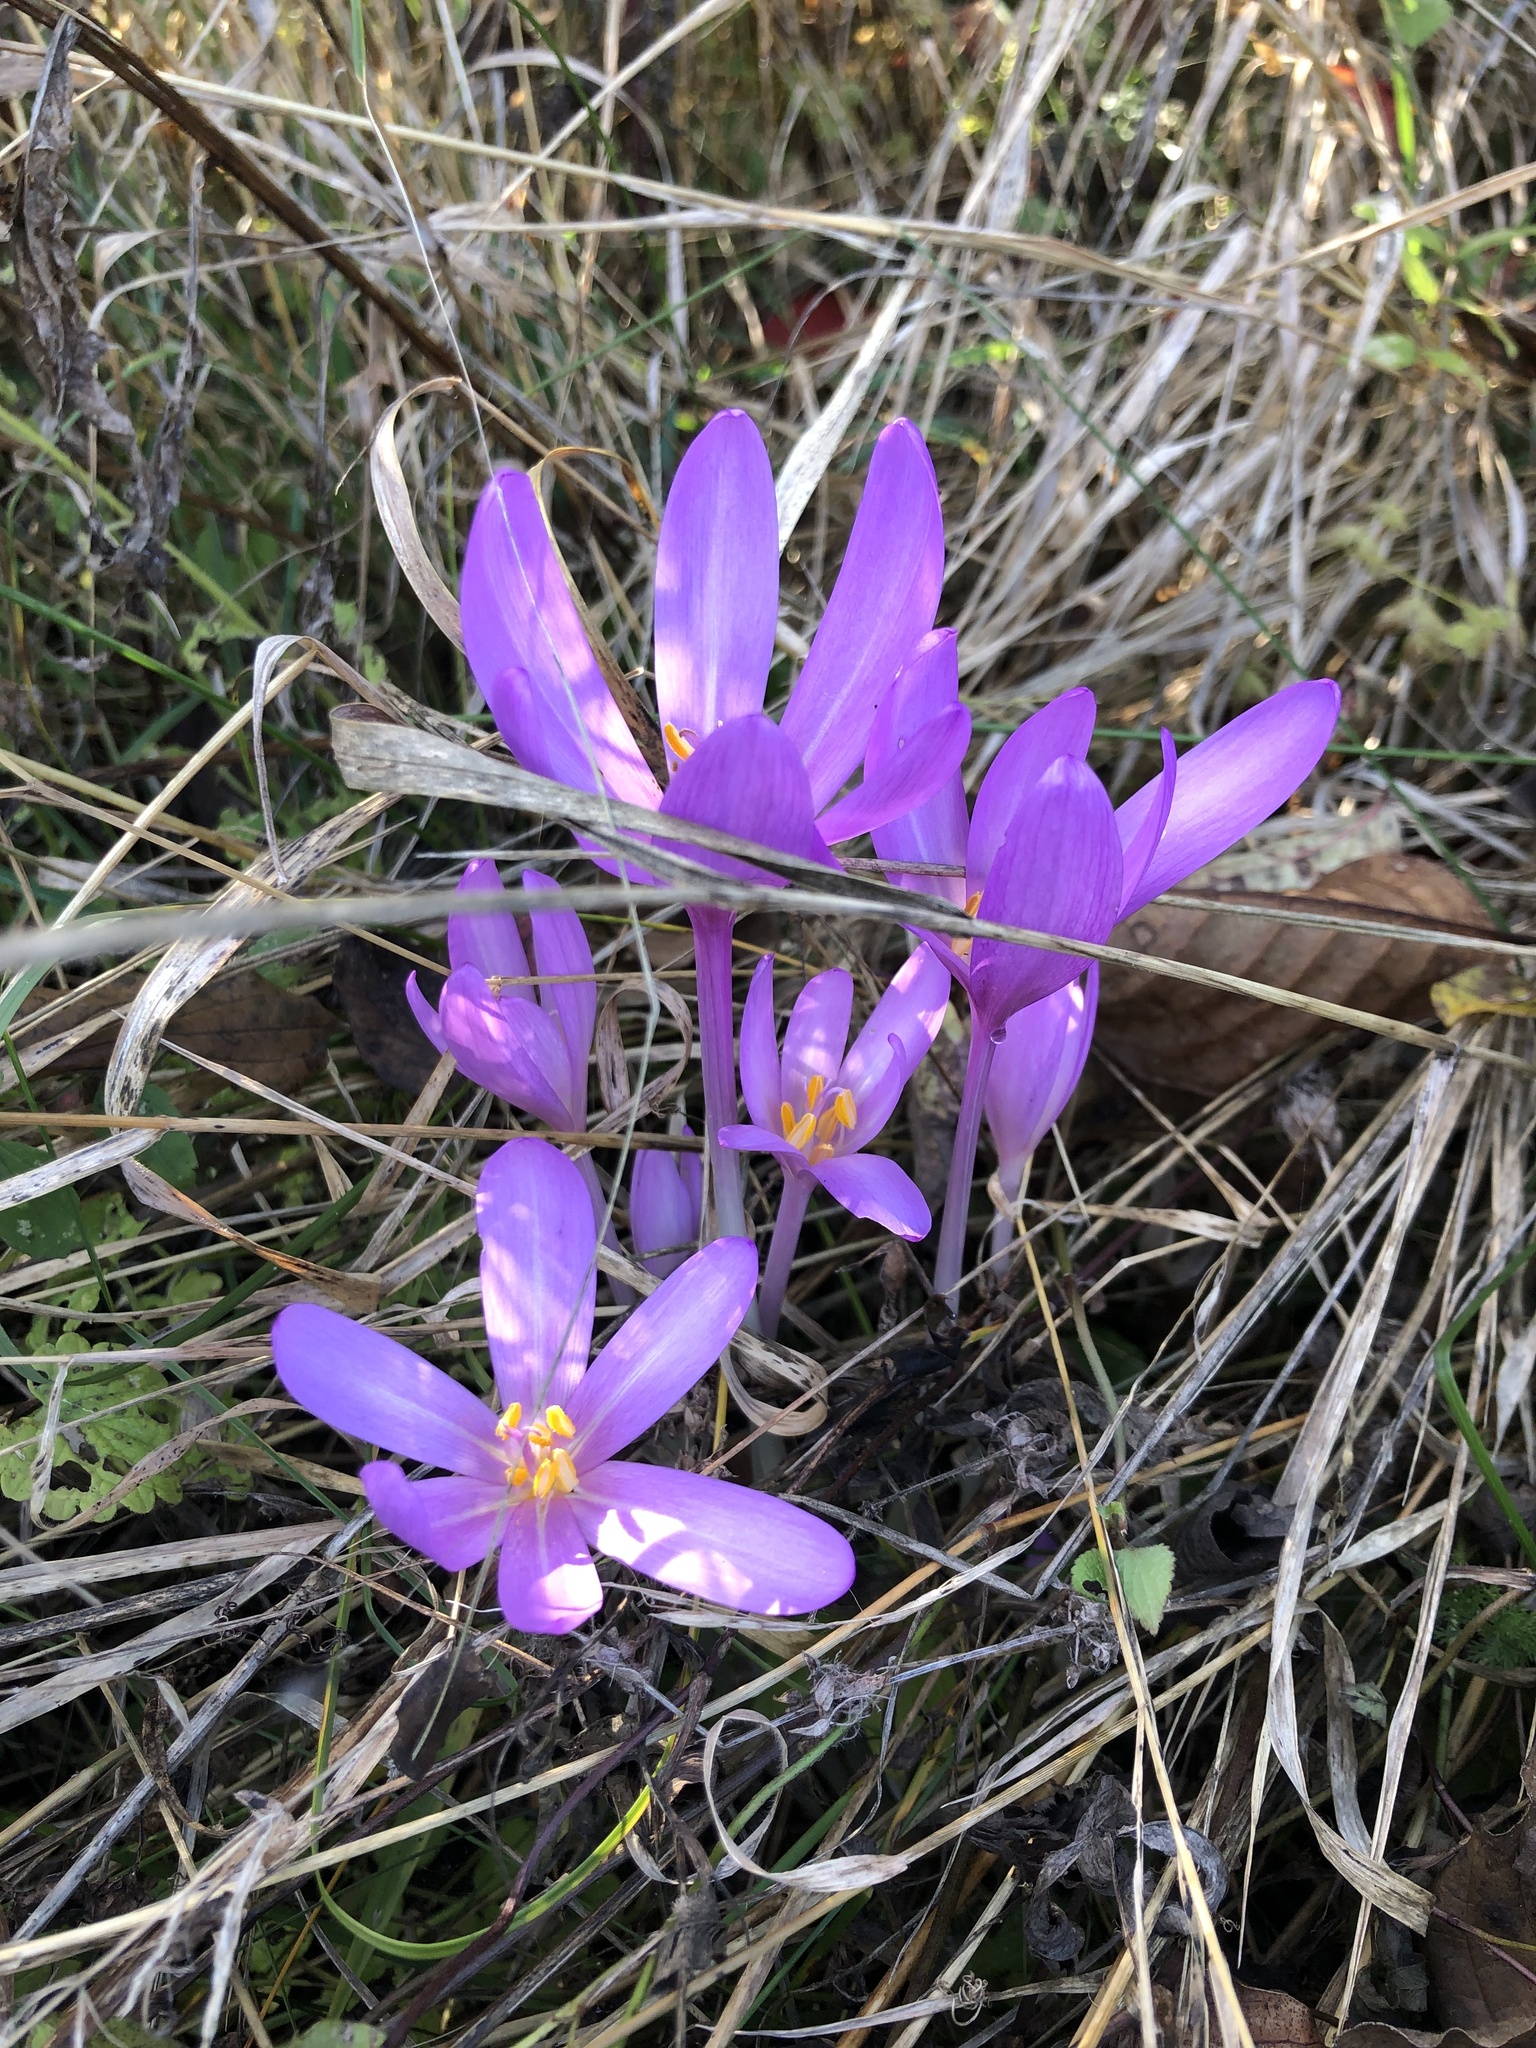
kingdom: Plantae
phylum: Tracheophyta
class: Liliopsida
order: Liliales
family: Colchicaceae
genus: Colchicum
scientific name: Colchicum autumnale
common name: Autumn crocus
